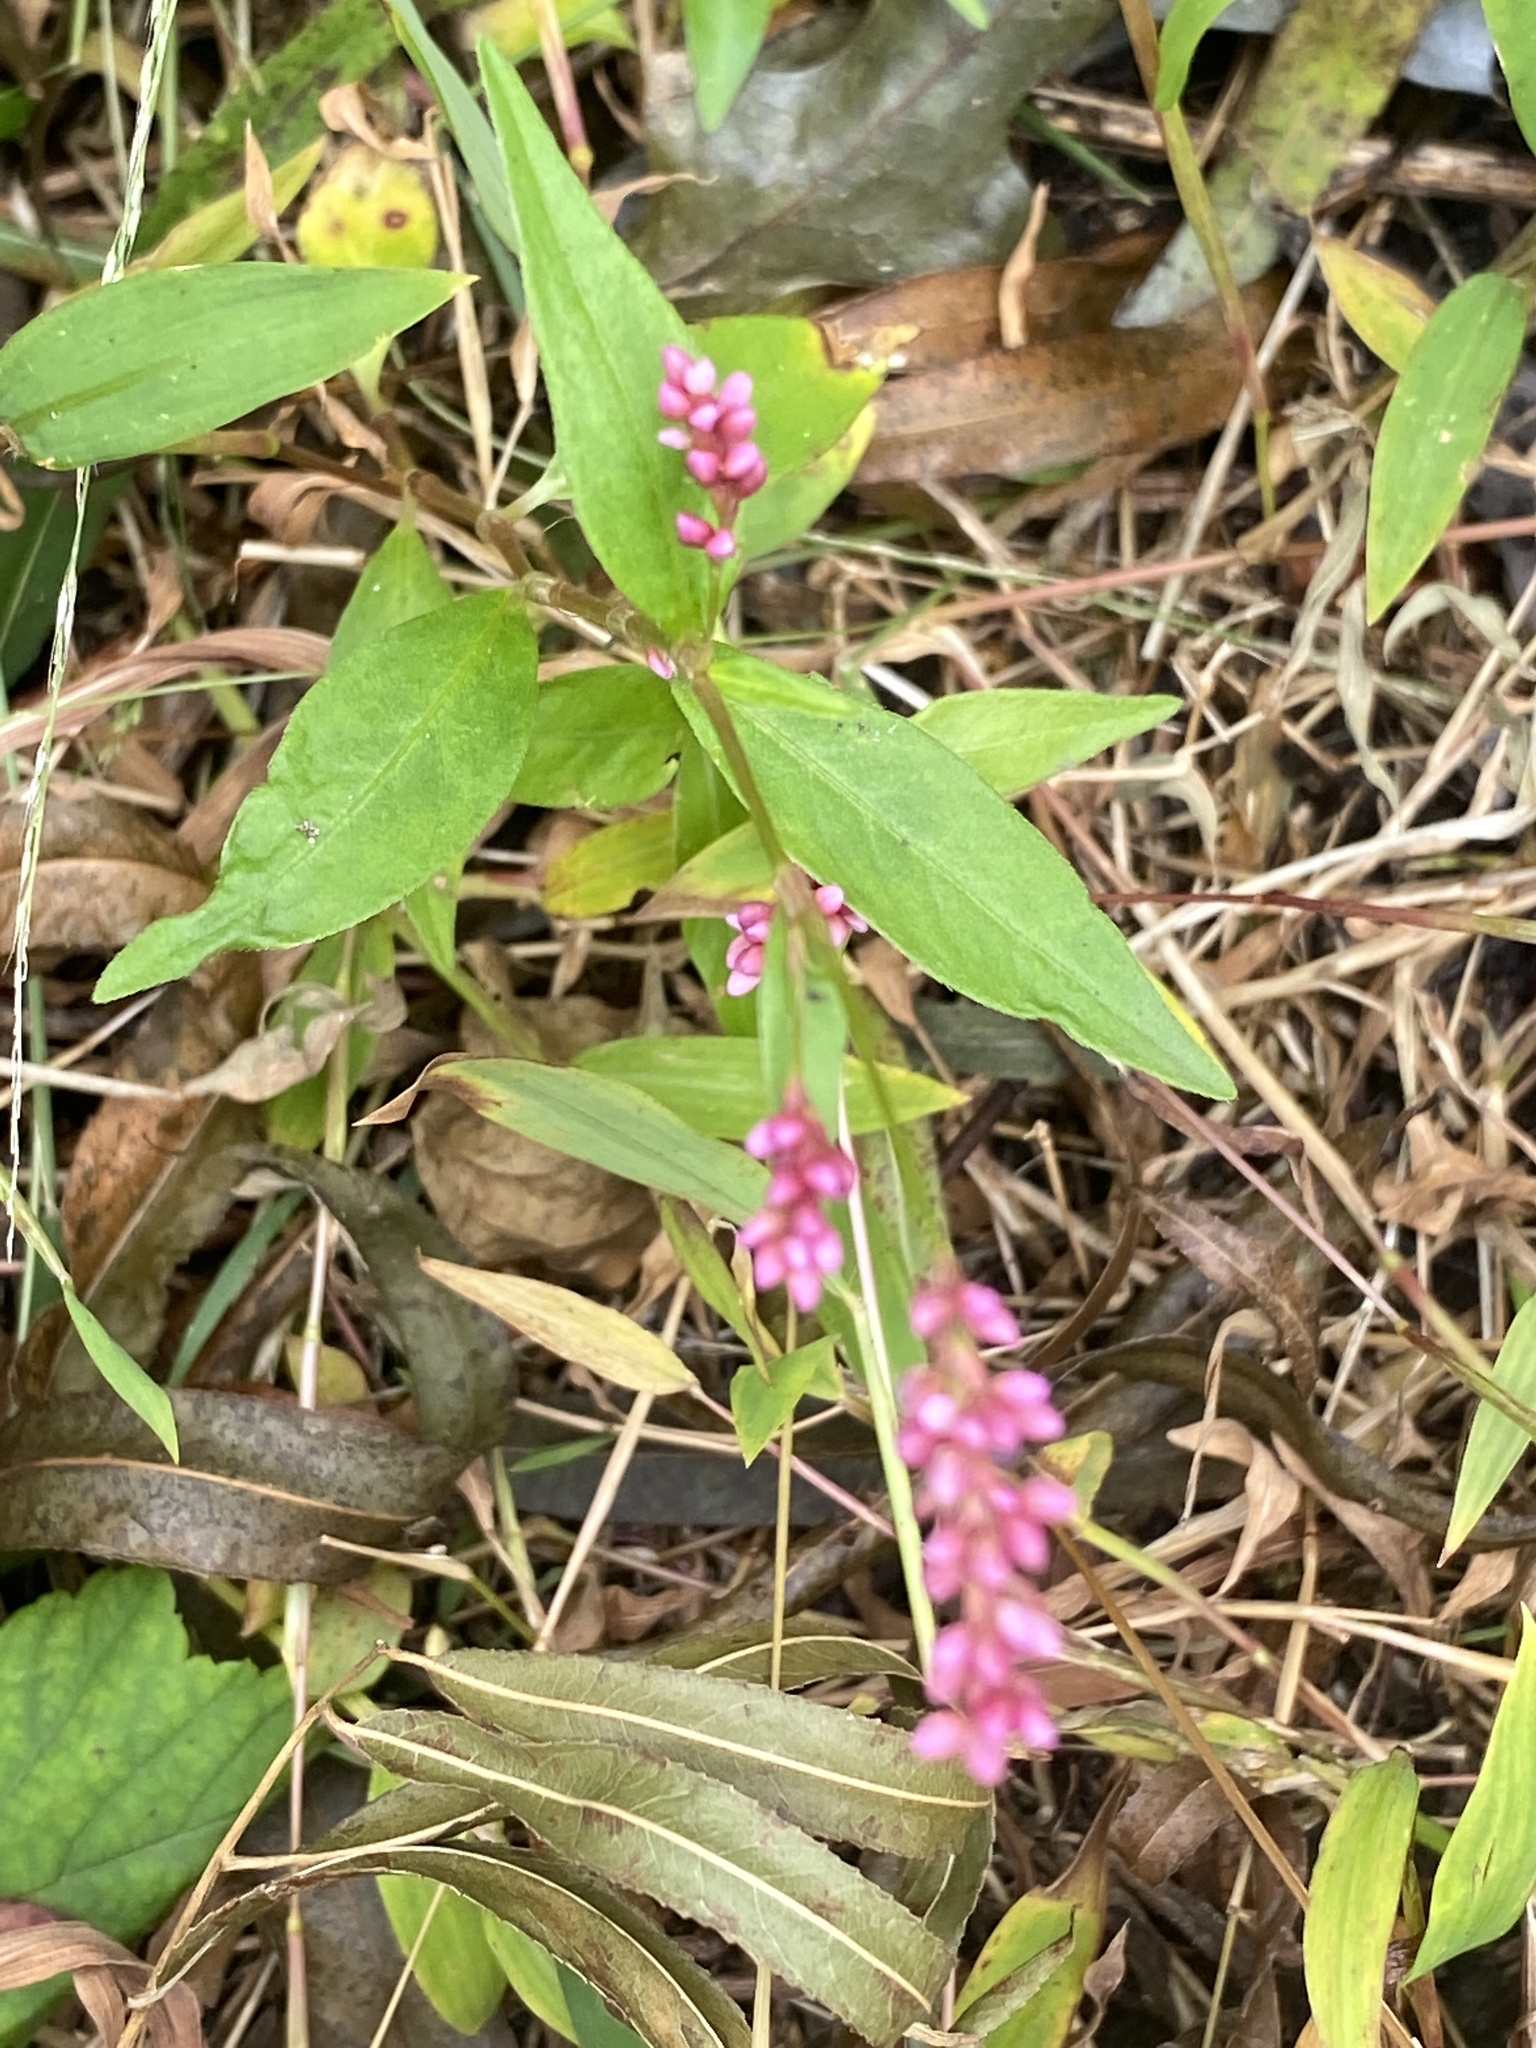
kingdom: Plantae
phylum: Tracheophyta
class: Magnoliopsida
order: Caryophyllales
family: Polygonaceae
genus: Persicaria
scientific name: Persicaria longiseta
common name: Bristly lady's-thumb
